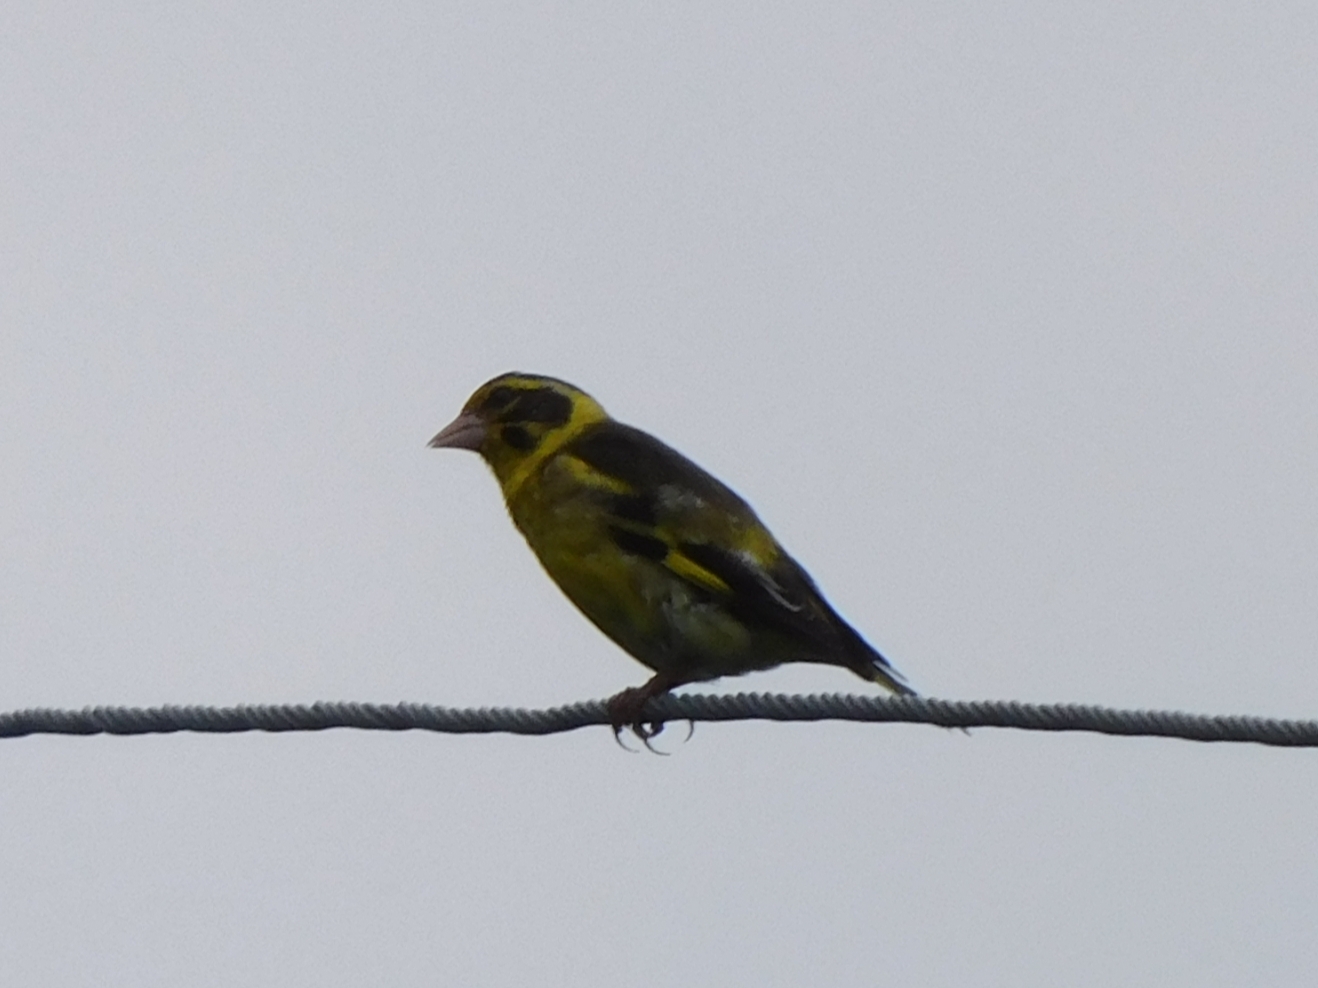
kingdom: Animalia
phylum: Chordata
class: Aves
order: Passeriformes
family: Fringillidae
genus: Chloris
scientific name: Chloris spinoides
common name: Yellow-breasted greenfinch
